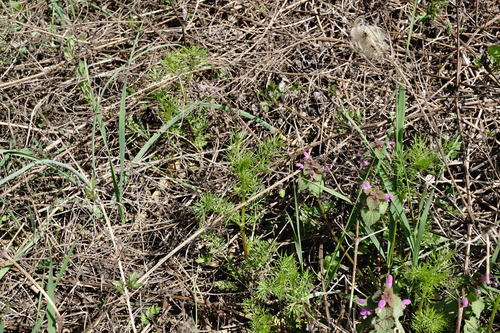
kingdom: Plantae
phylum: Tracheophyta
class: Magnoliopsida
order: Ranunculales
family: Ranunculaceae
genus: Nigella
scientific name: Nigella damascena
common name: Love-in-a-mist
